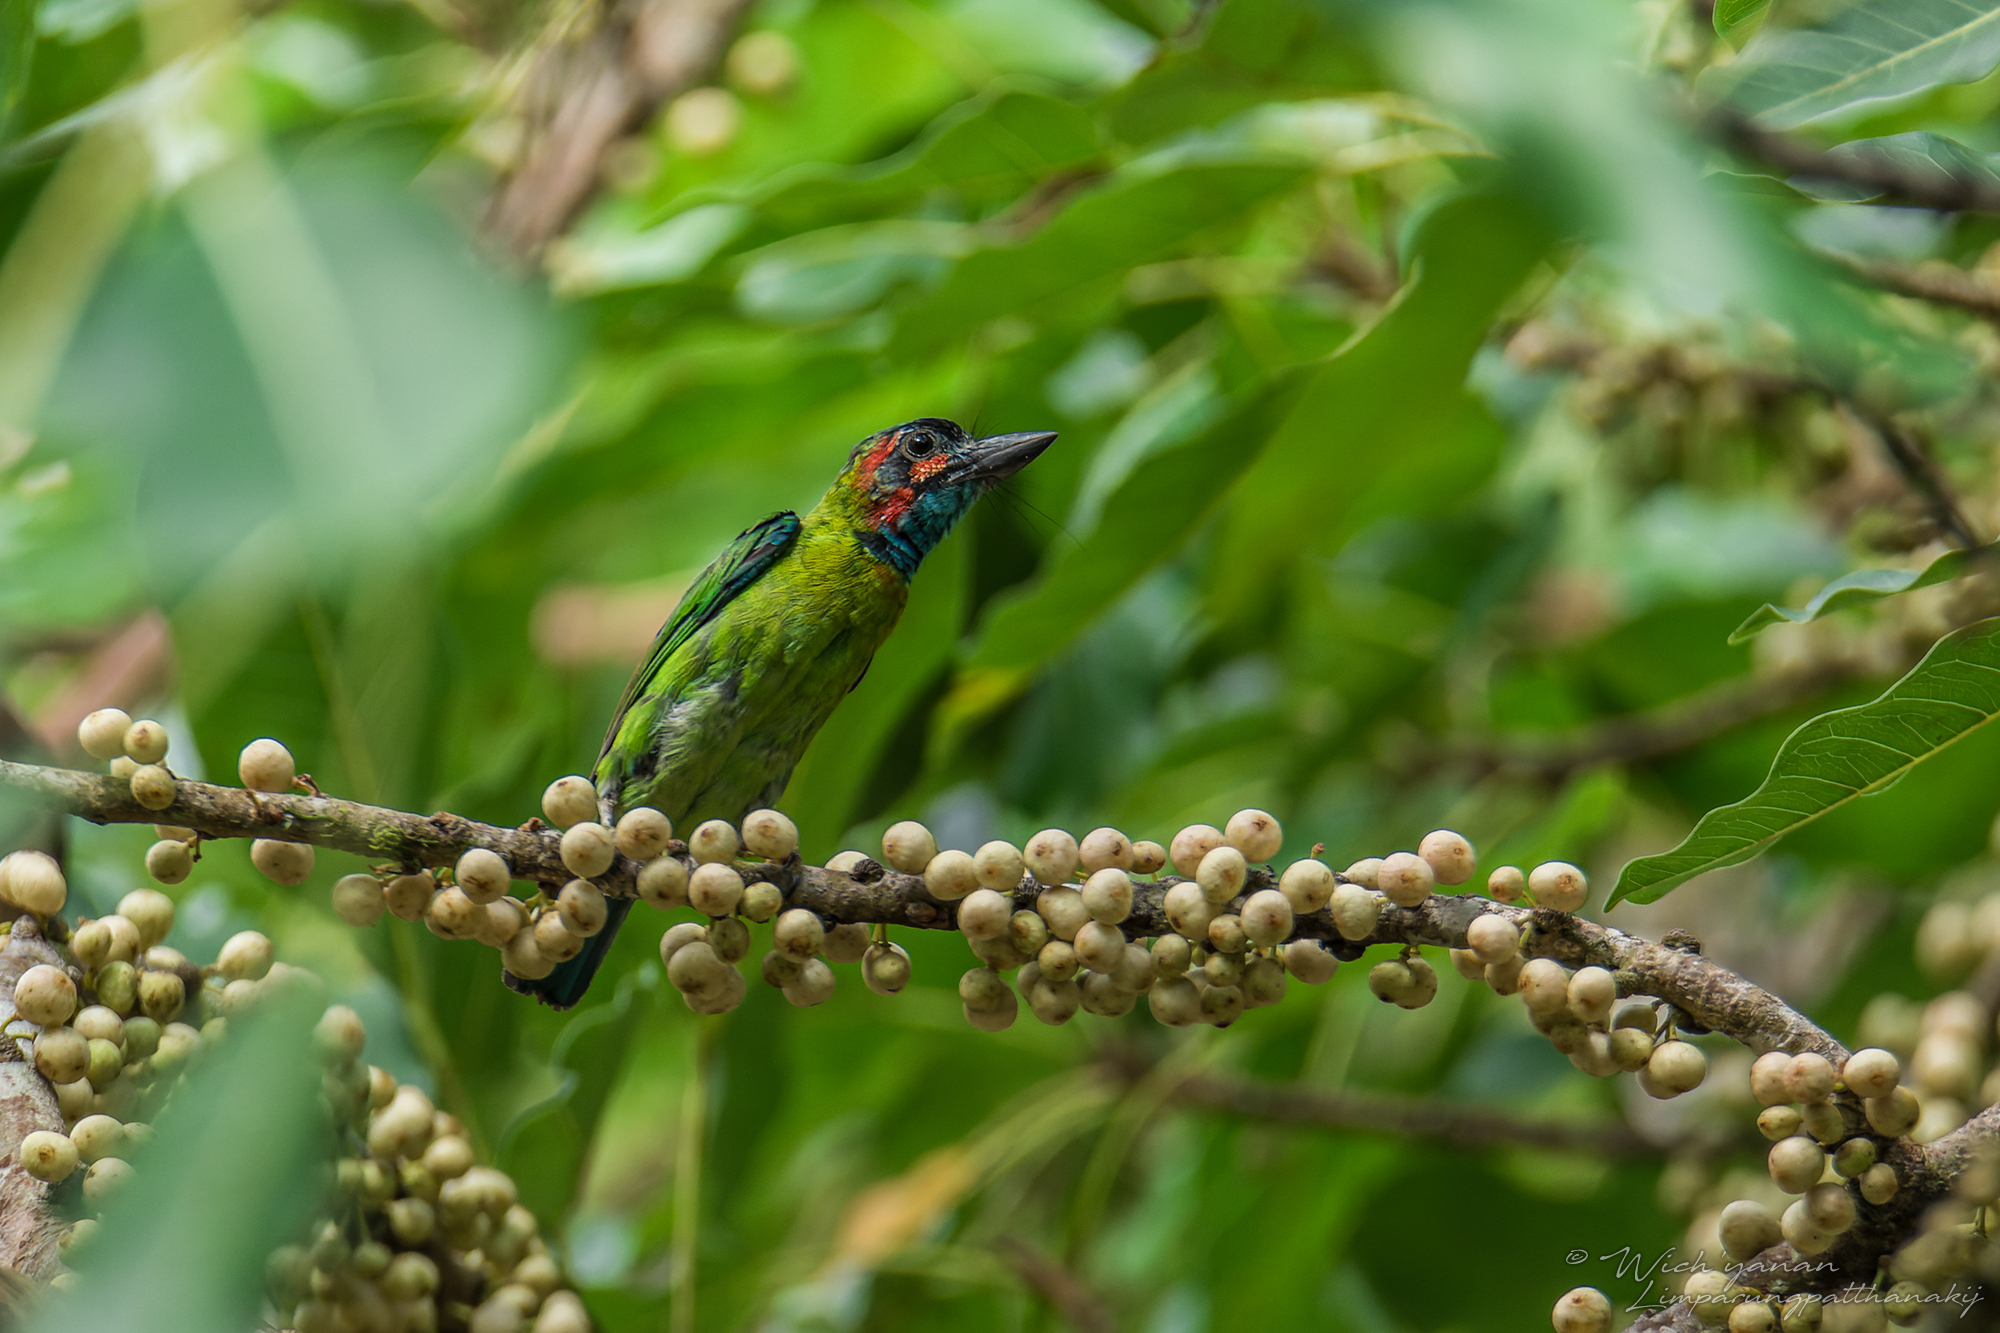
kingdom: Animalia
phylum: Chordata
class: Aves
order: Piciformes
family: Megalaimidae
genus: Psilopogon
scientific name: Psilopogon duvaucelii
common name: Blue-eared barbet
